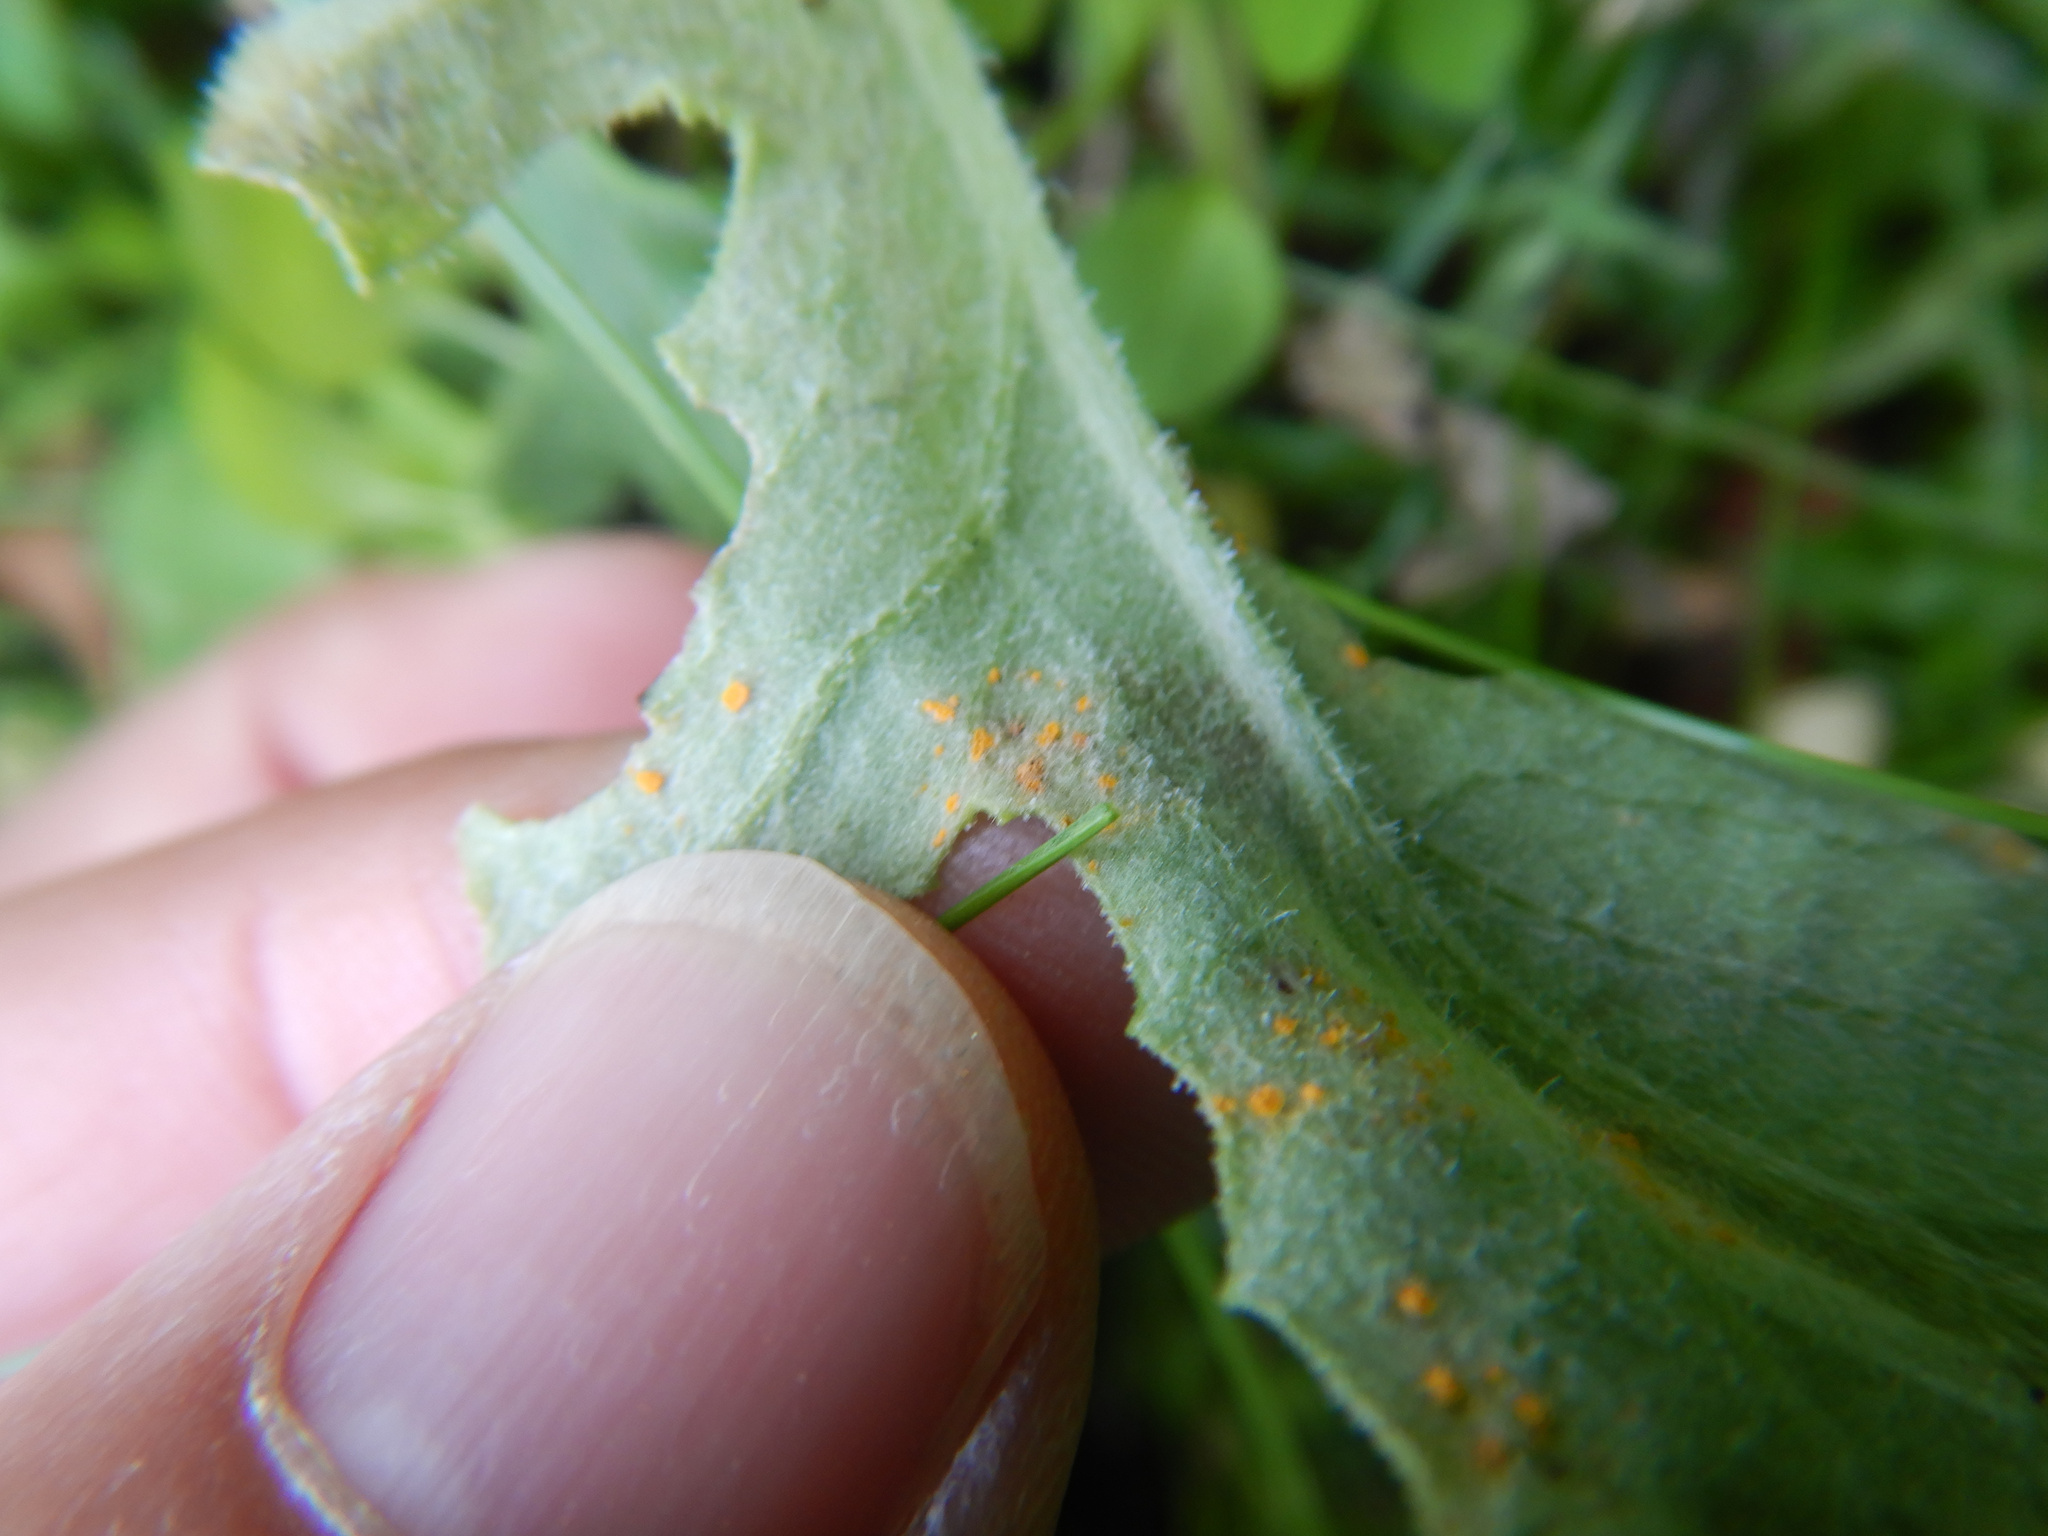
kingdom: Fungi
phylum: Basidiomycota
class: Pucciniomycetes
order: Pucciniales
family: Coleosporiaceae
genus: Coleosporium
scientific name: Coleosporium tussilaginis
